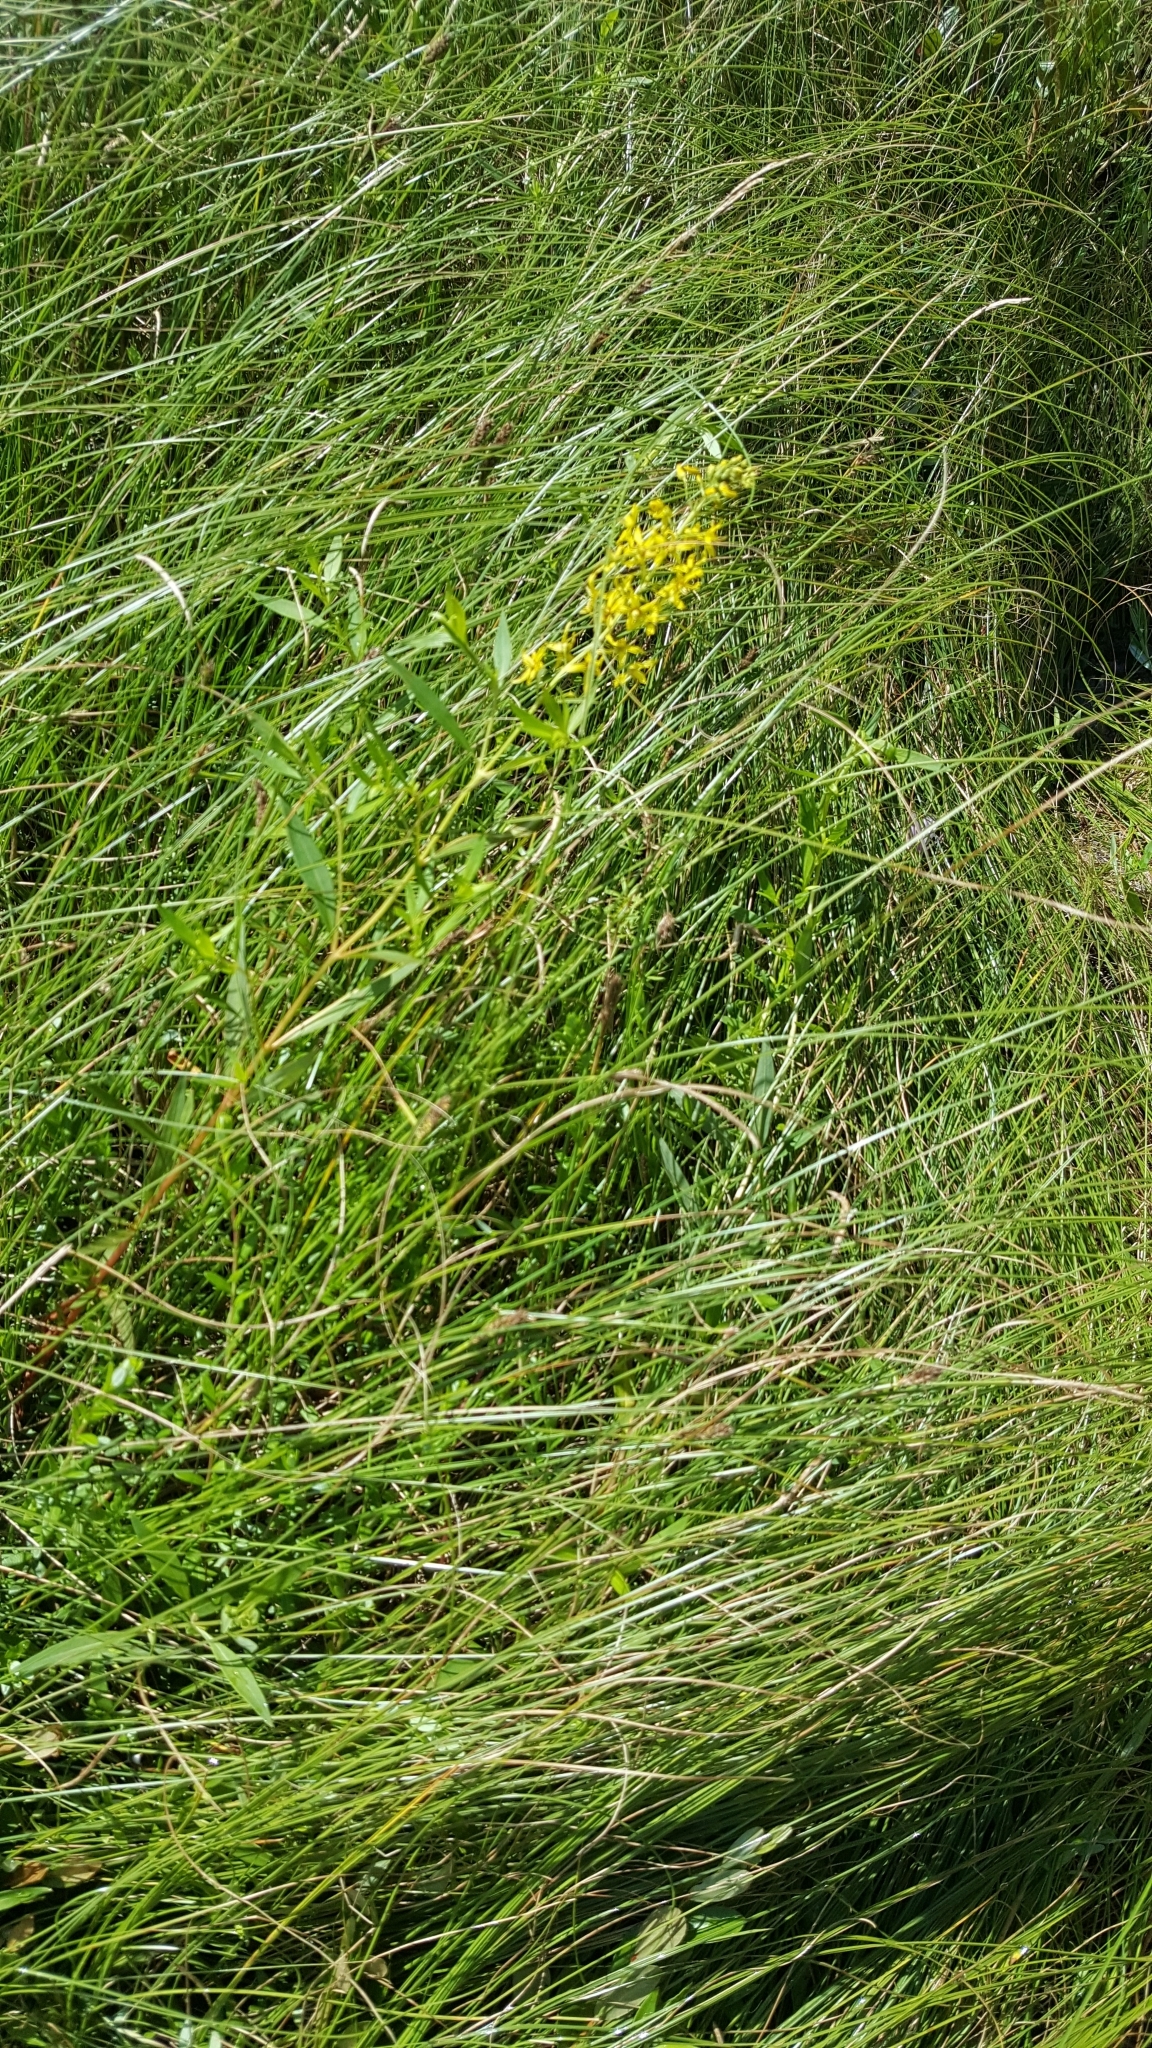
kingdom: Plantae
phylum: Tracheophyta
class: Magnoliopsida
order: Ericales
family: Primulaceae
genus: Lysimachia
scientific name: Lysimachia terrestris
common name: Lake loosestrife
